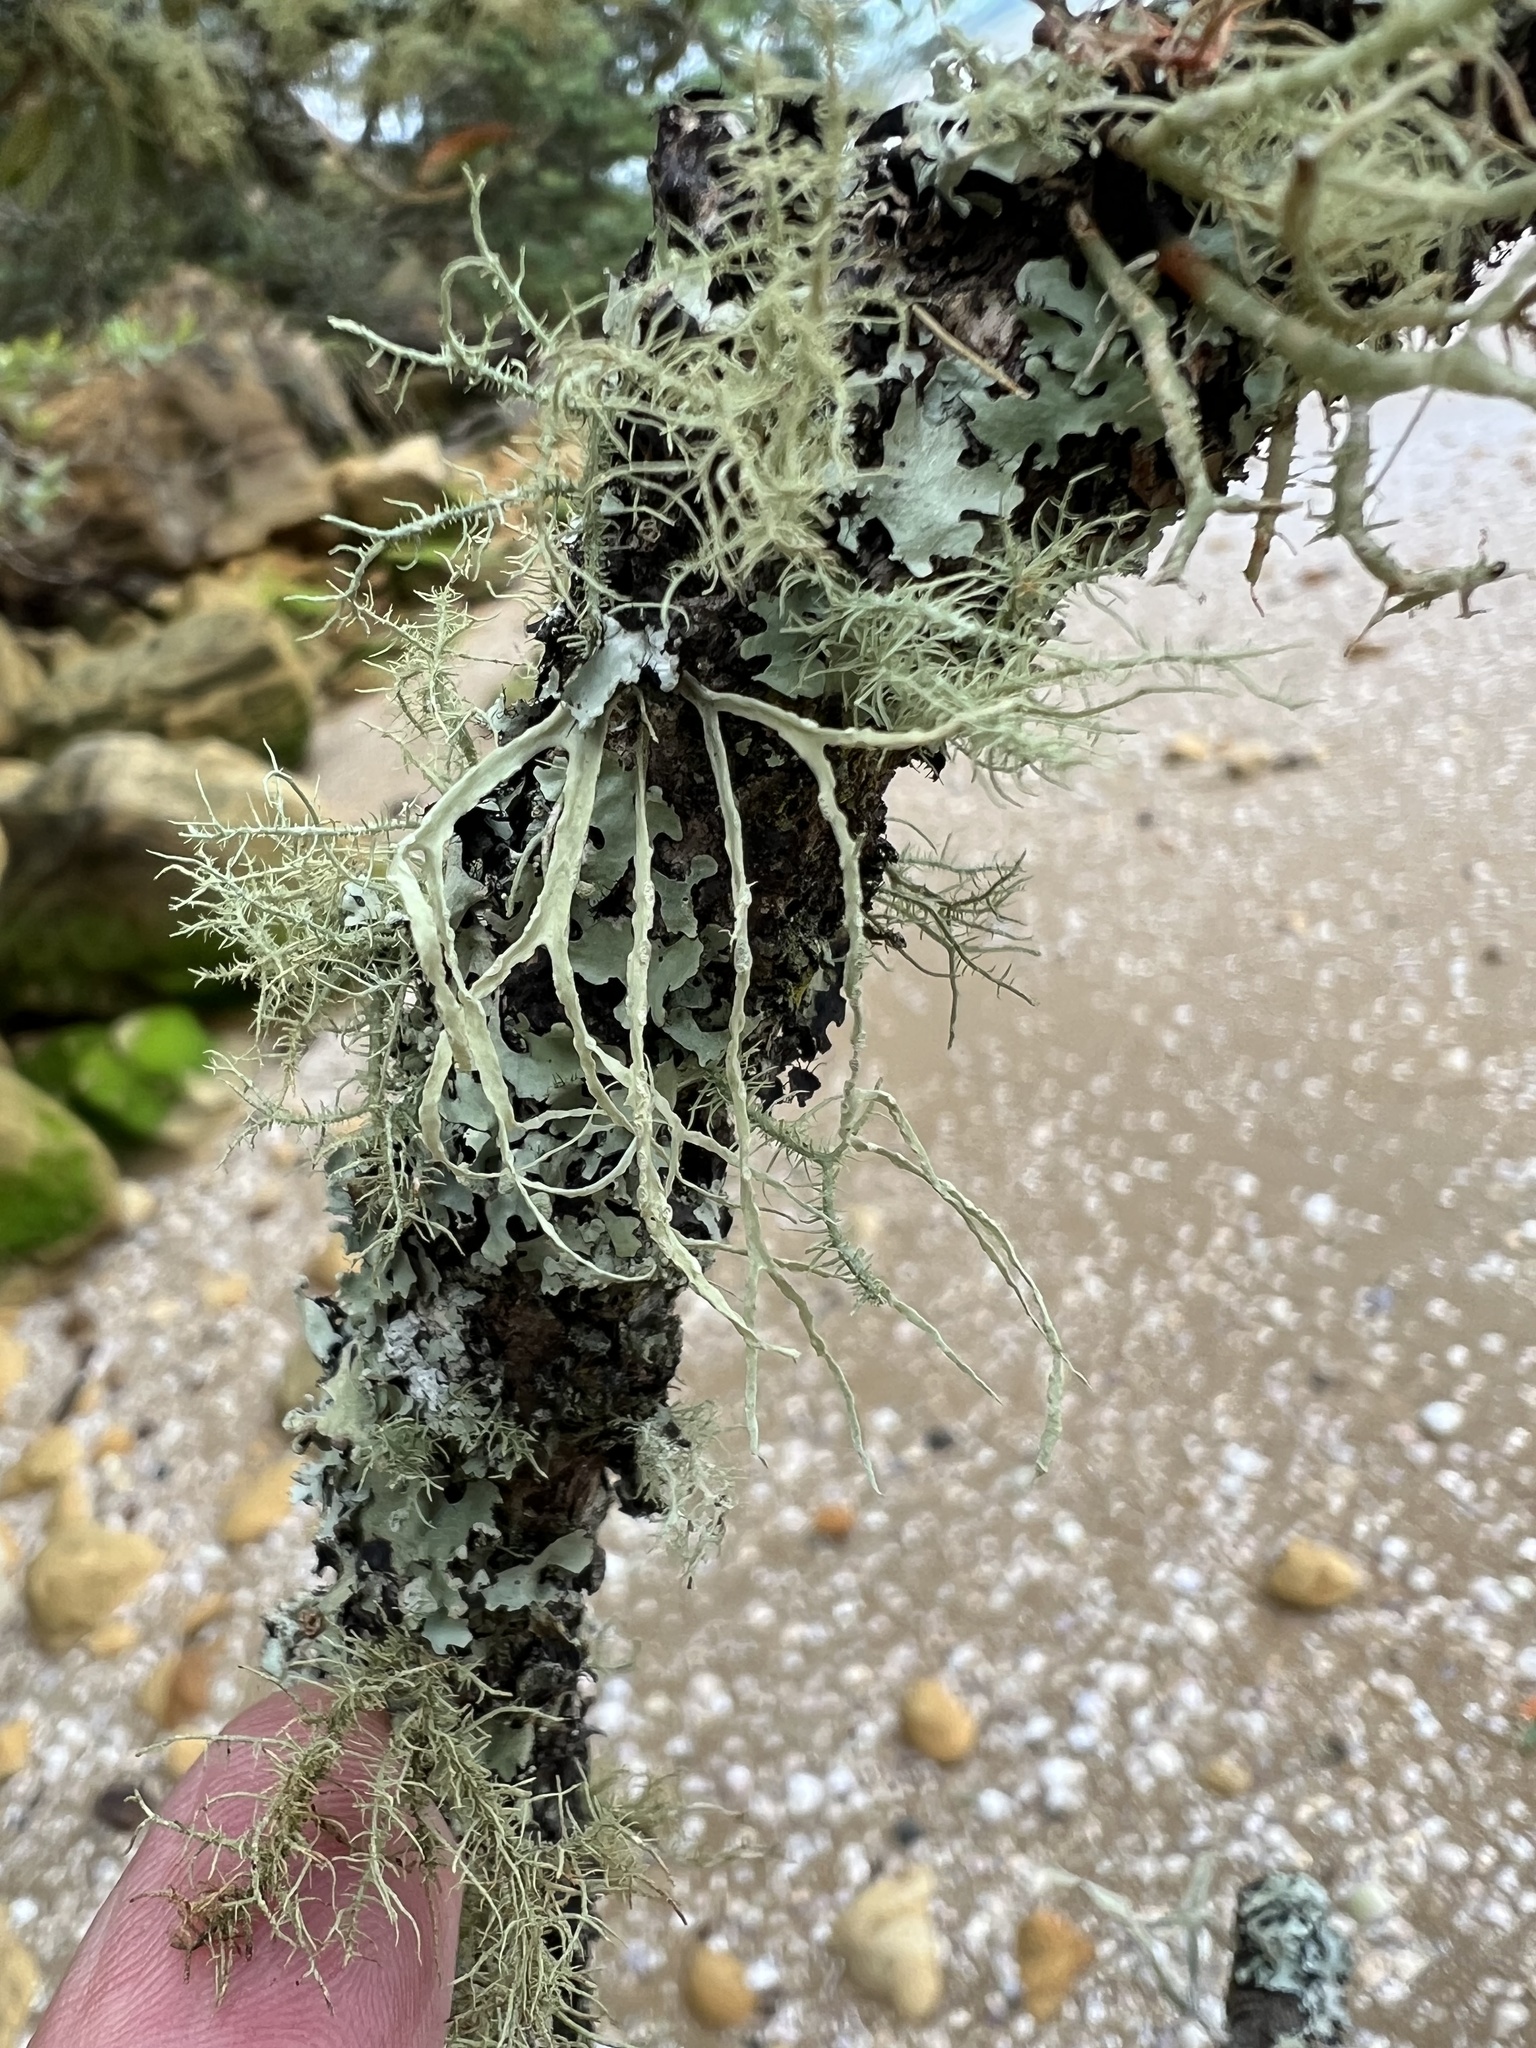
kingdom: Fungi
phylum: Ascomycota
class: Lecanoromycetes
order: Lecanorales
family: Ramalinaceae
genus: Ramalina
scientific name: Ramalina pacifica
